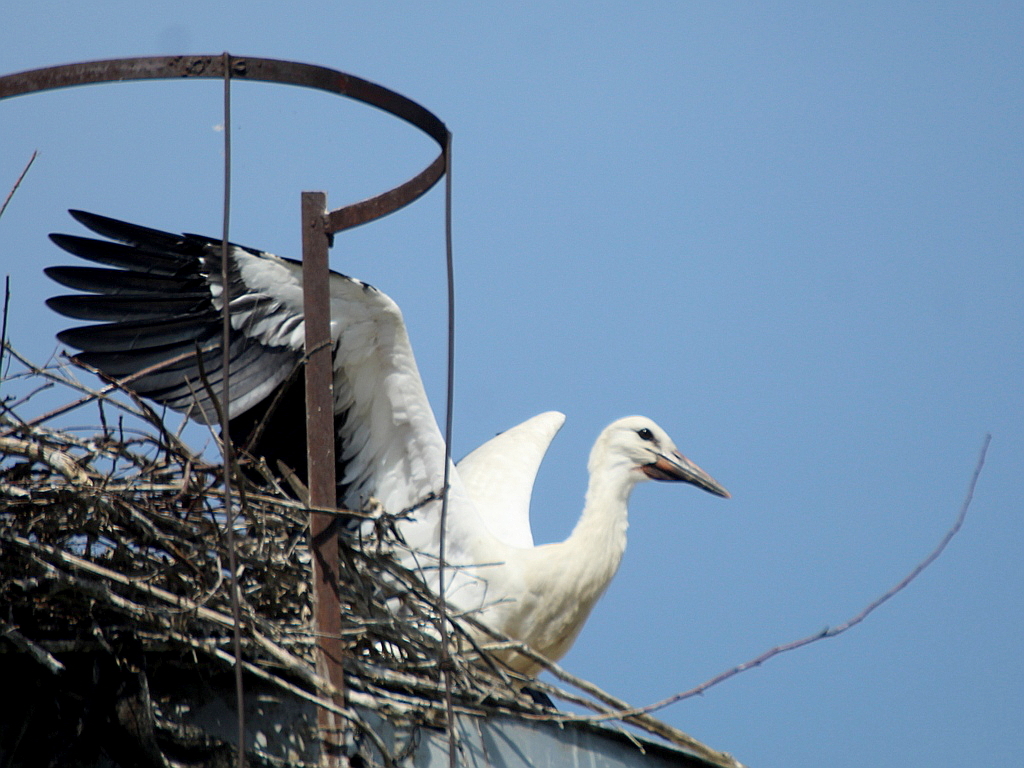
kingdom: Animalia
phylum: Chordata
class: Aves
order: Ciconiiformes
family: Ciconiidae
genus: Ciconia
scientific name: Ciconia ciconia
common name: White stork
